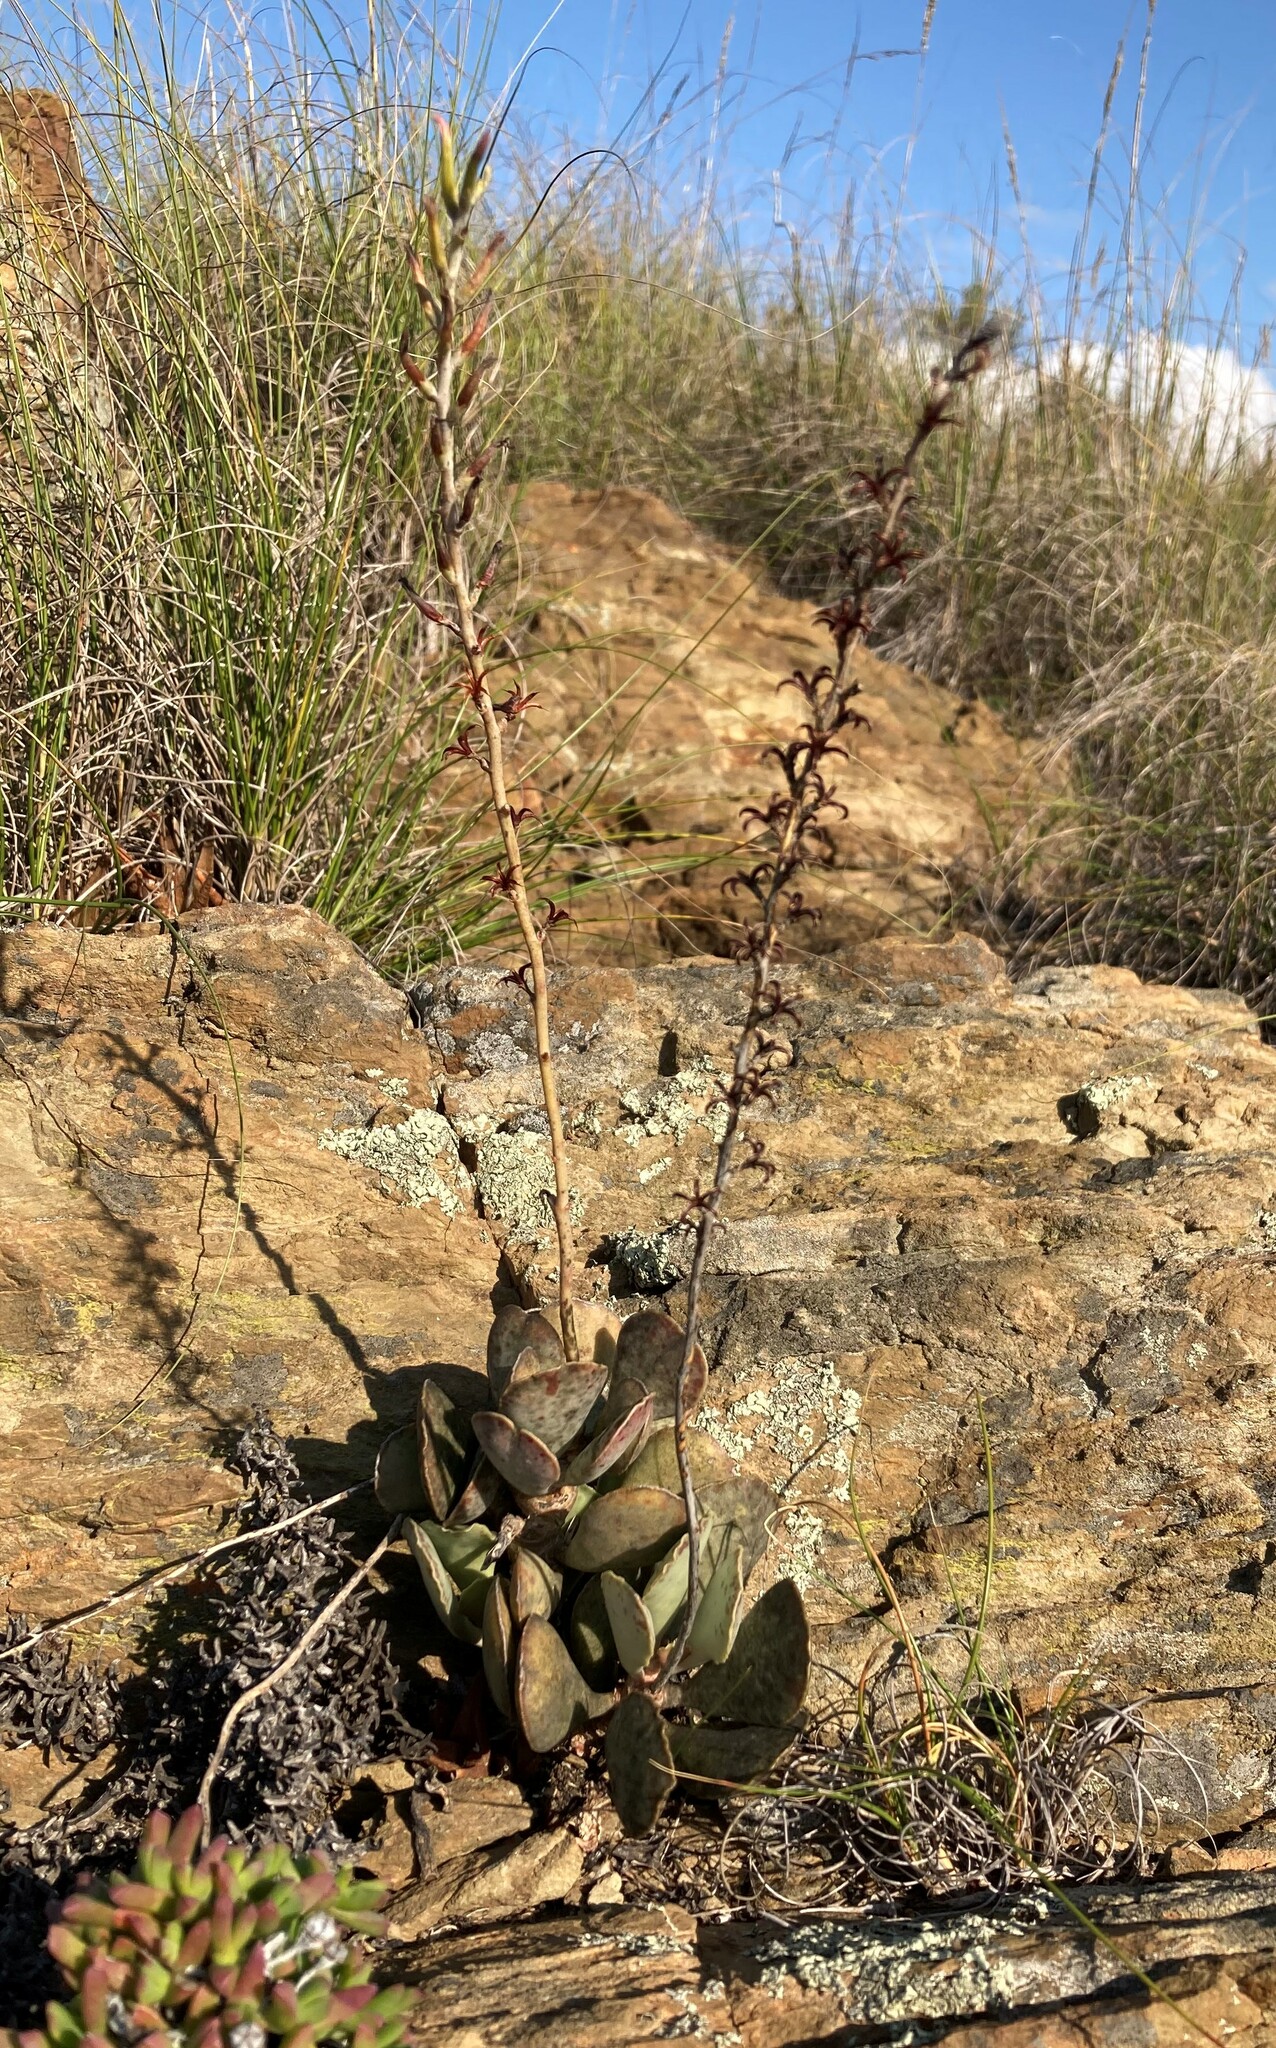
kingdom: Plantae
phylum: Tracheophyta
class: Magnoliopsida
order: Saxifragales
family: Crassulaceae
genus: Adromischus
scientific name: Adromischus maculatus
